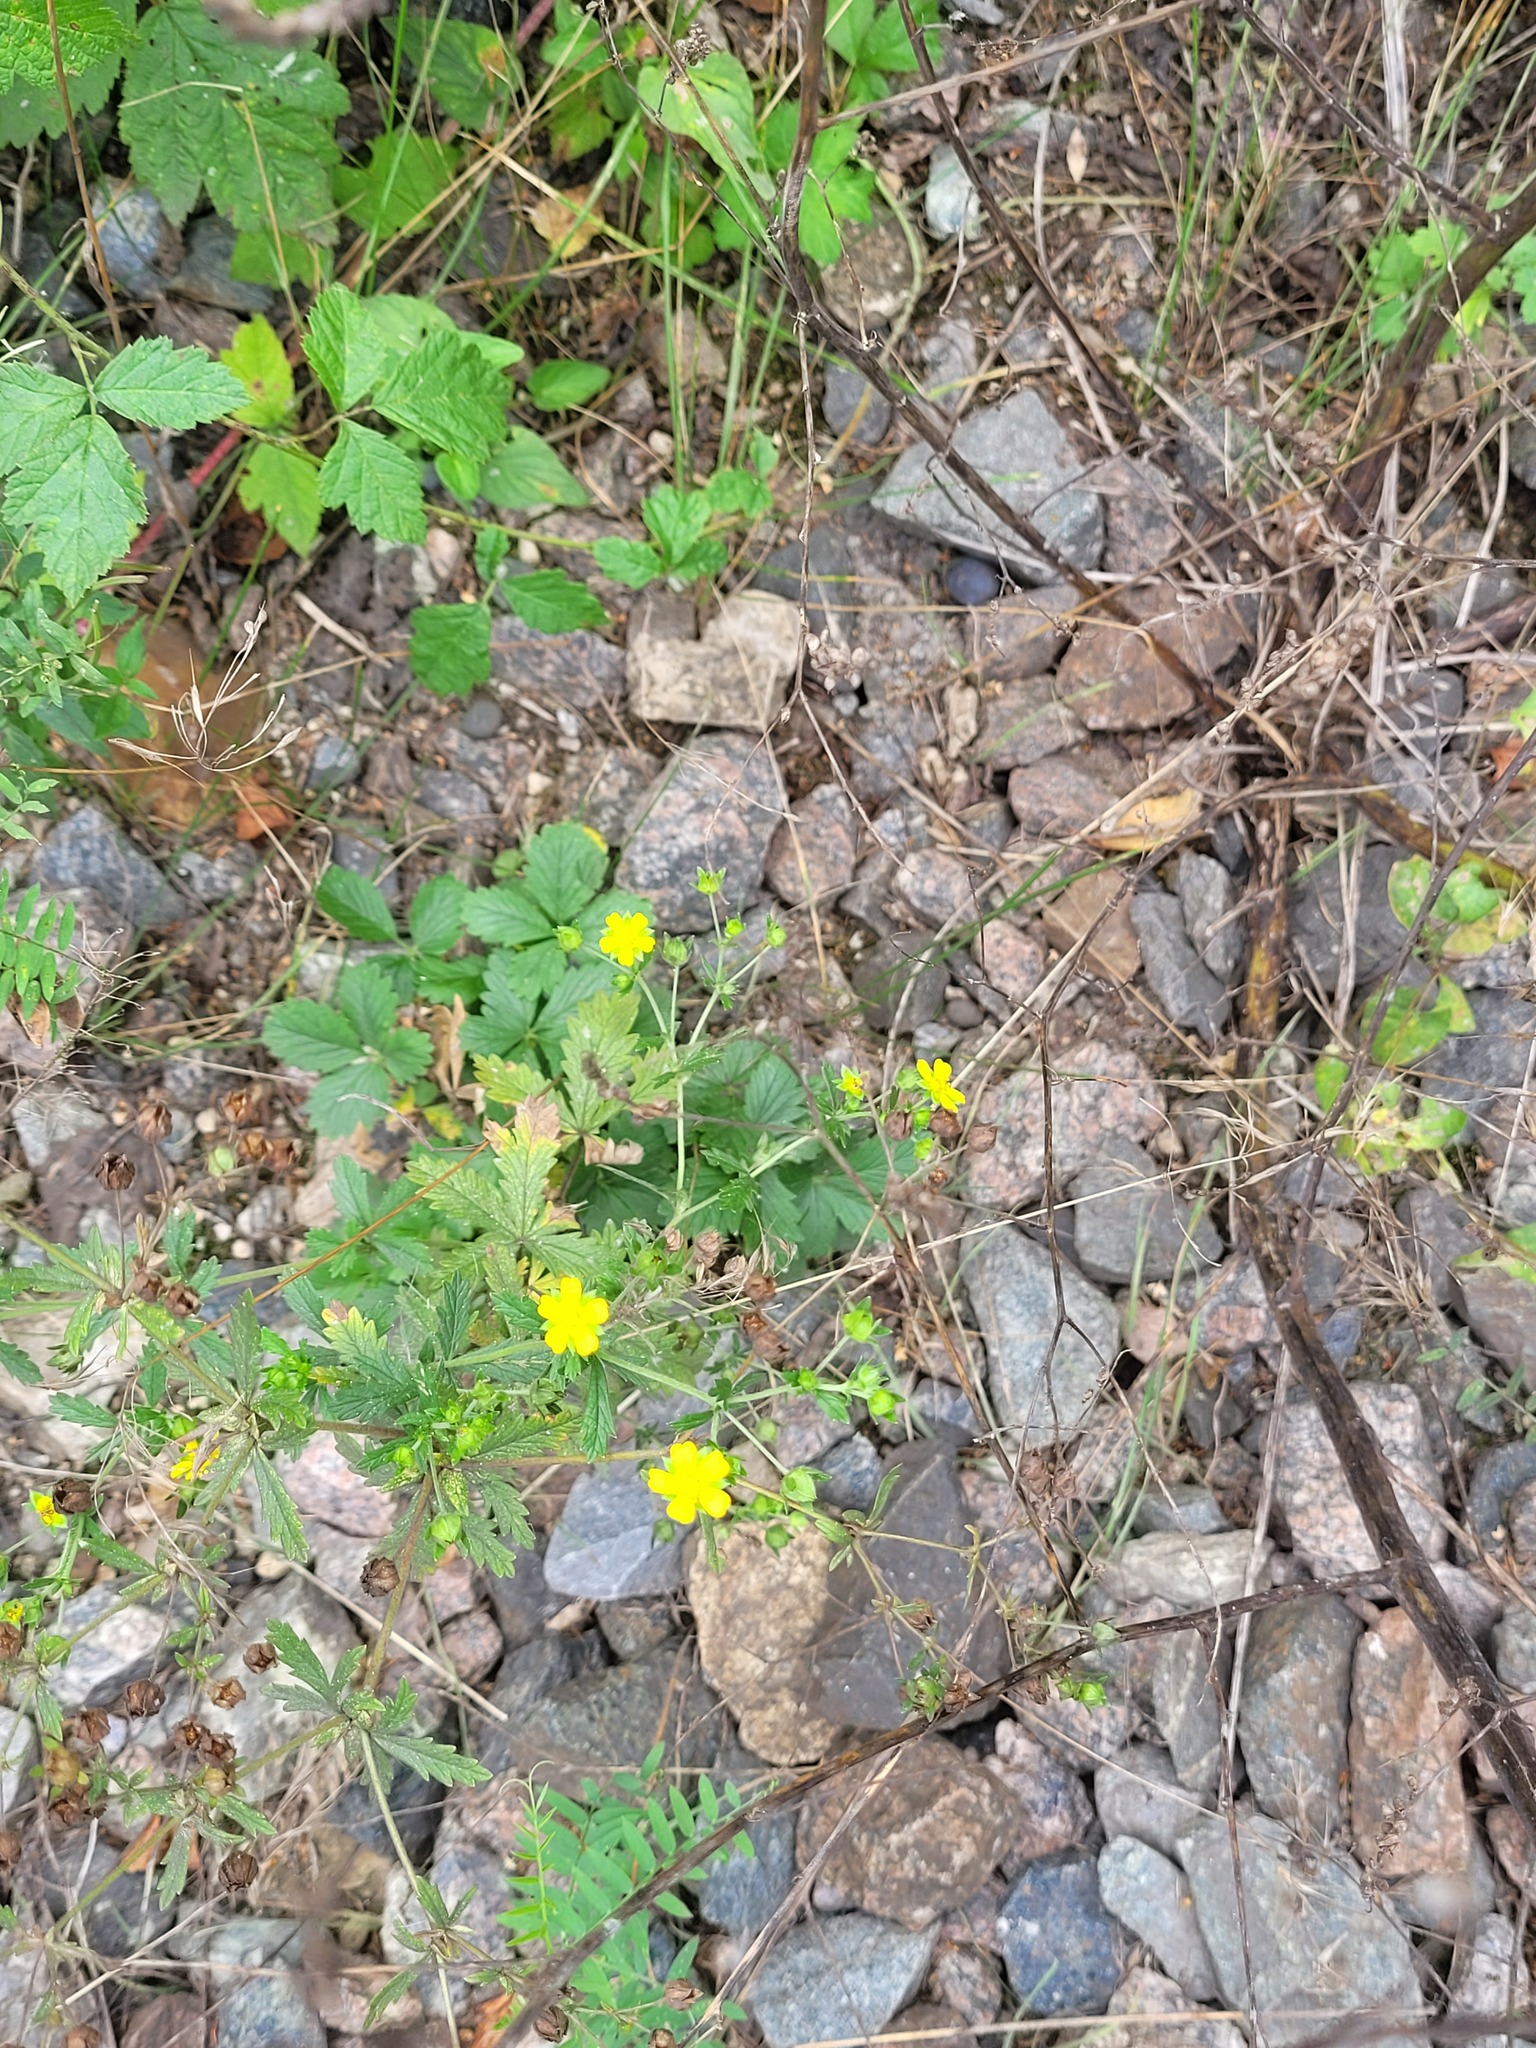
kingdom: Plantae
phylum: Tracheophyta
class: Magnoliopsida
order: Rosales
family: Rosaceae
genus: Potentilla
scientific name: Potentilla intermedia
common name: Downy cinquefoil
